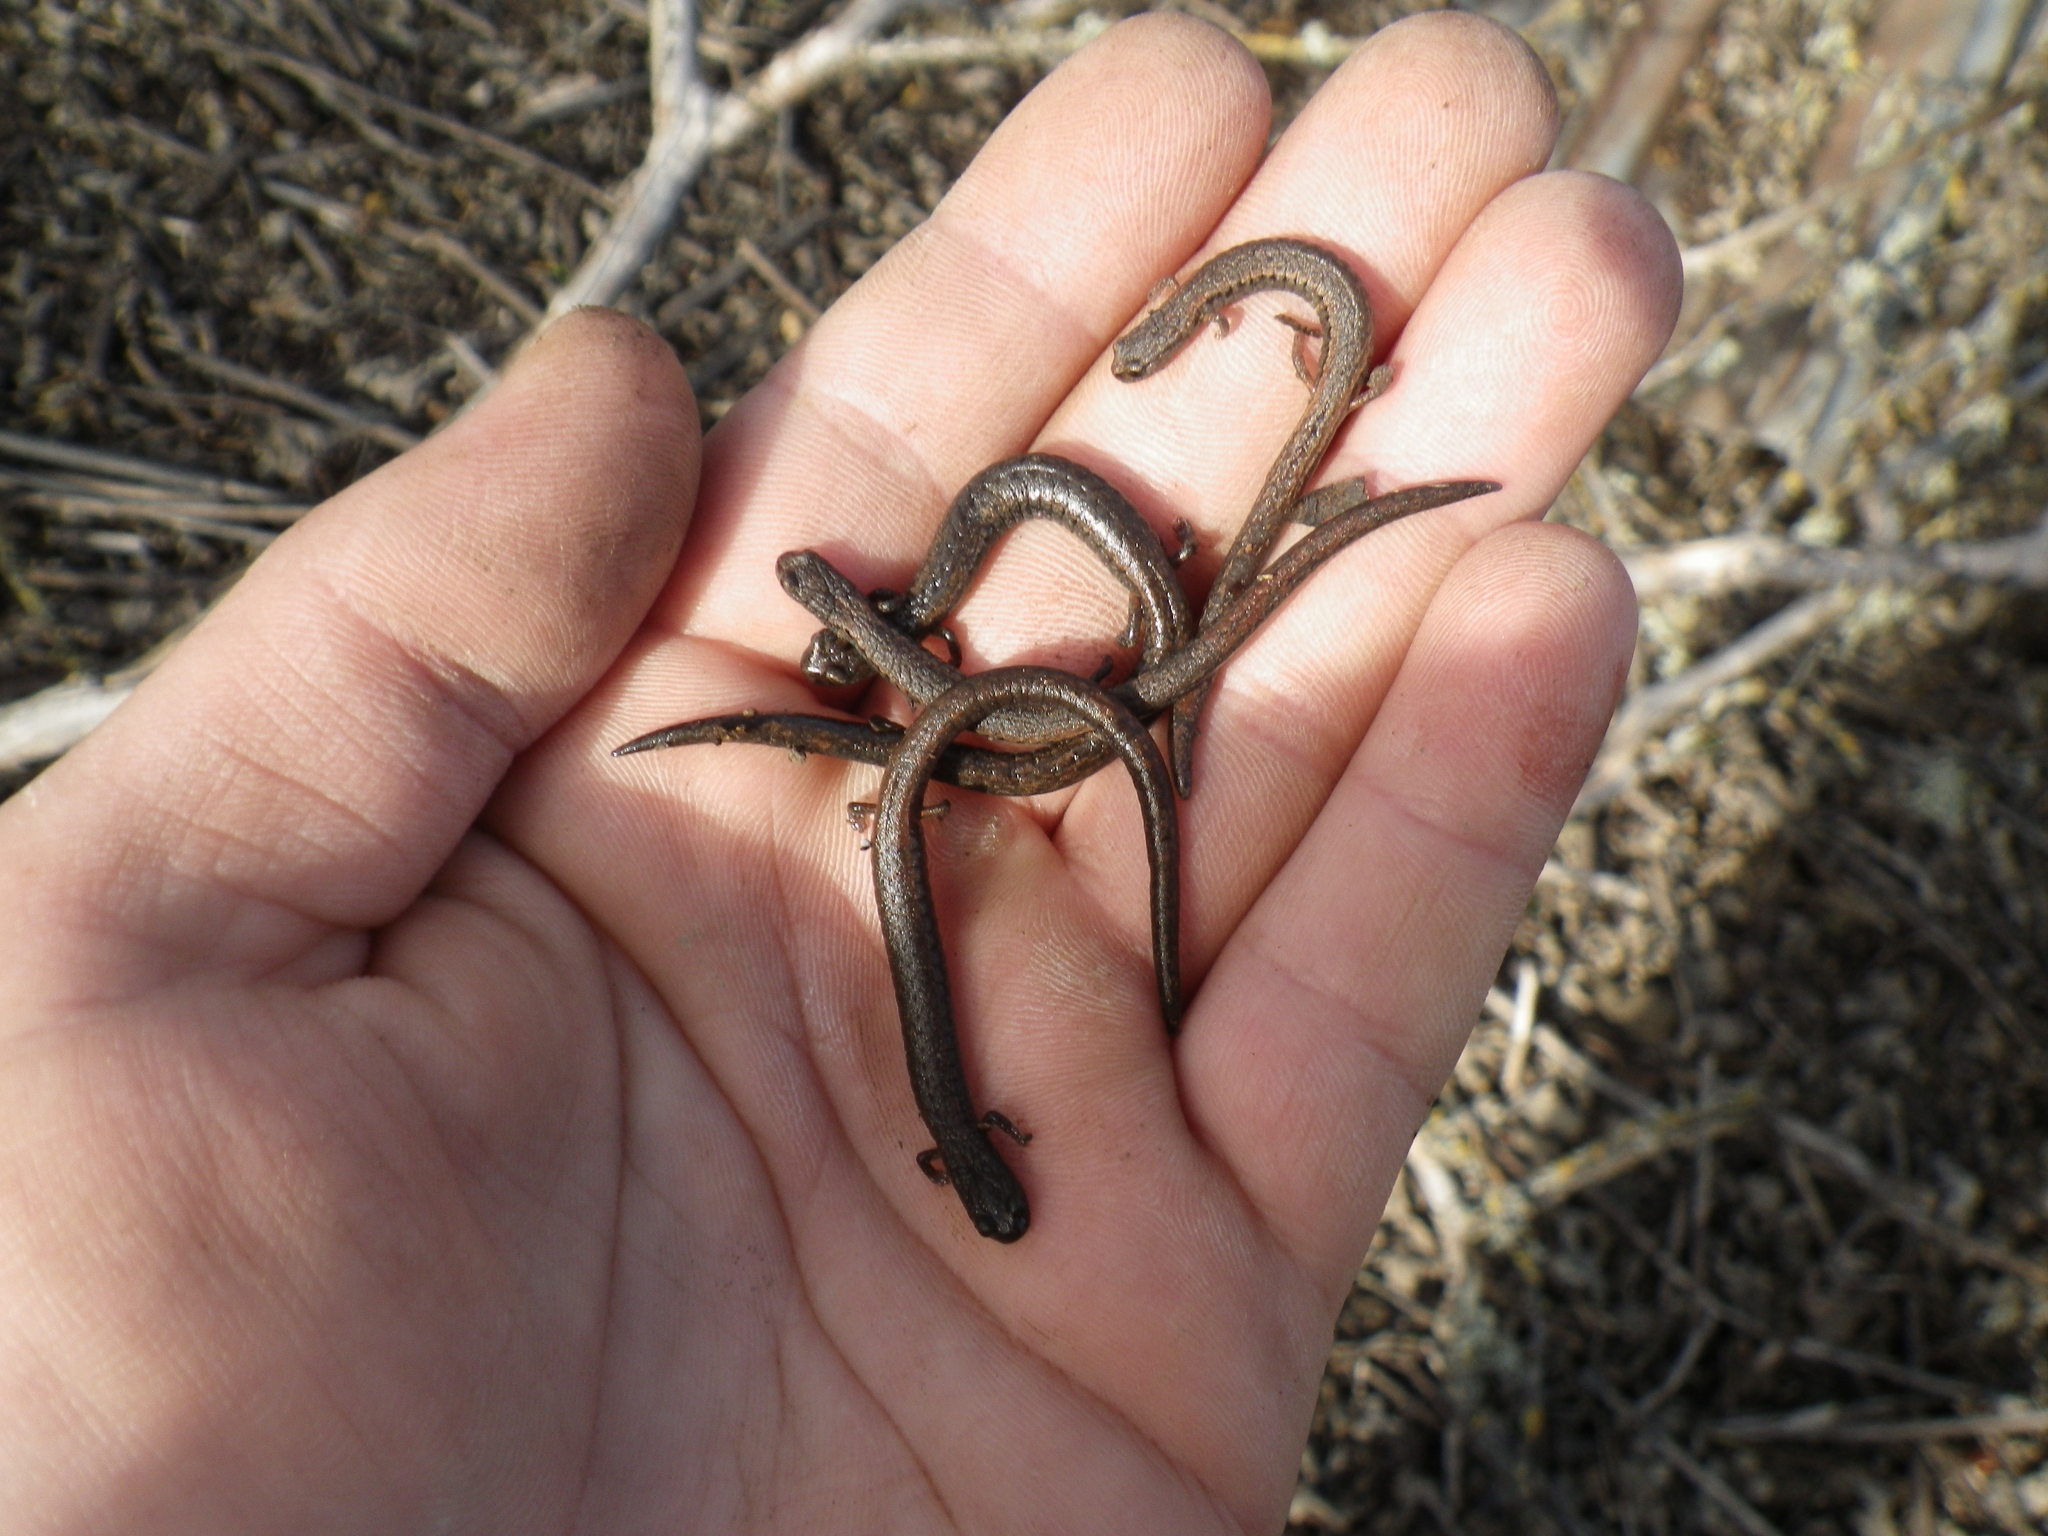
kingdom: Animalia
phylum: Chordata
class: Amphibia
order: Caudata
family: Plethodontidae
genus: Batrachoseps
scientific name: Batrachoseps attenuatus
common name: California slender salamander
